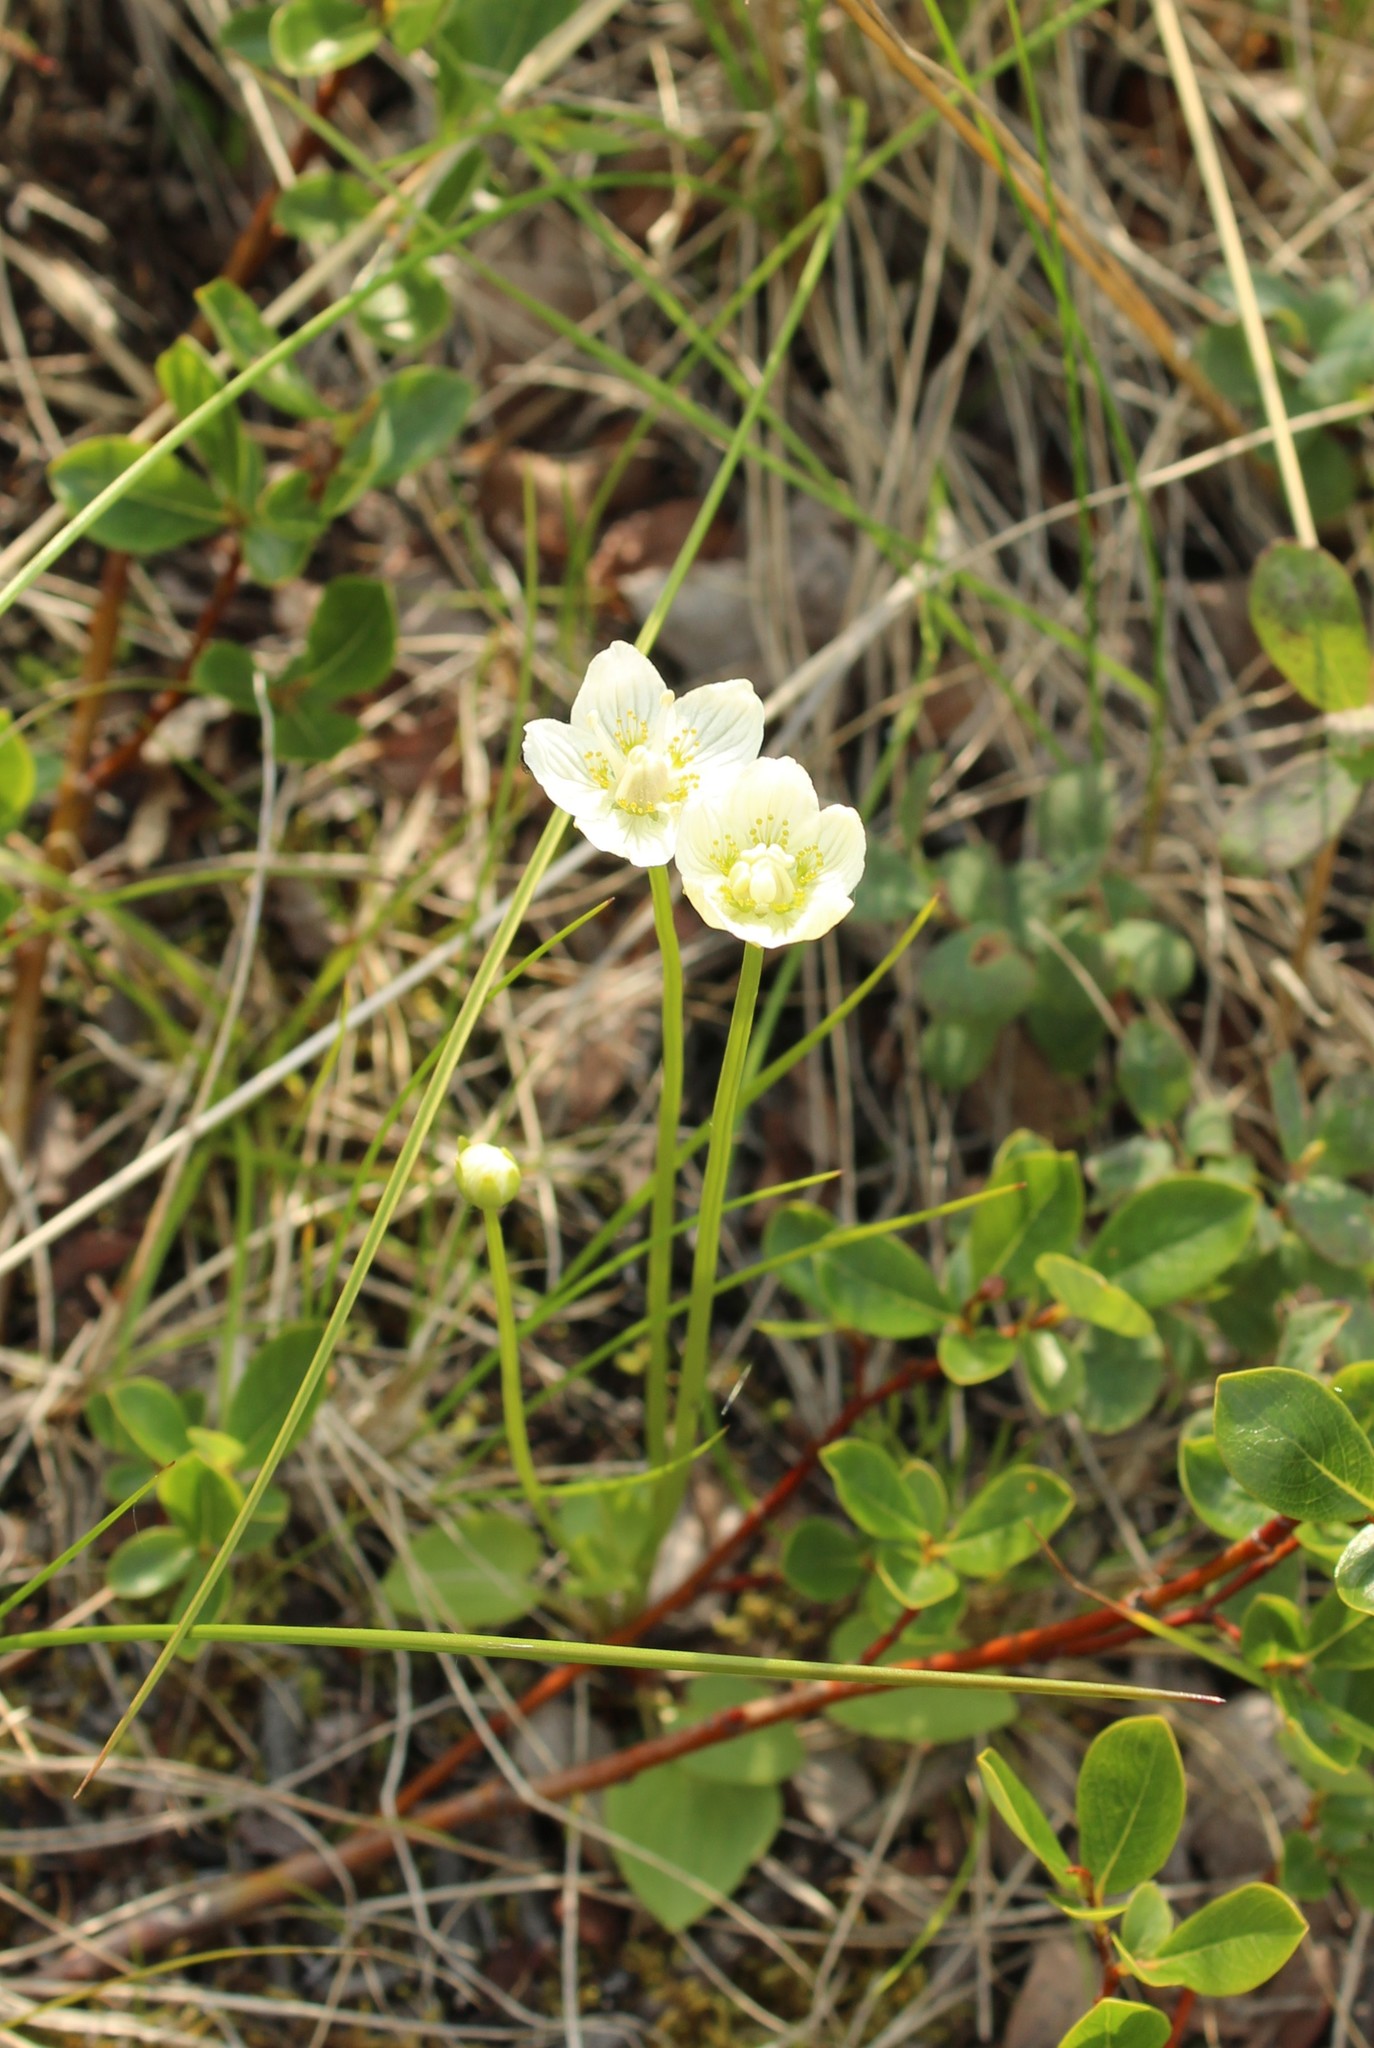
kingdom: Plantae
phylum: Tracheophyta
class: Magnoliopsida
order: Celastrales
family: Parnassiaceae
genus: Parnassia
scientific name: Parnassia palustris
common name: Grass-of-parnassus
